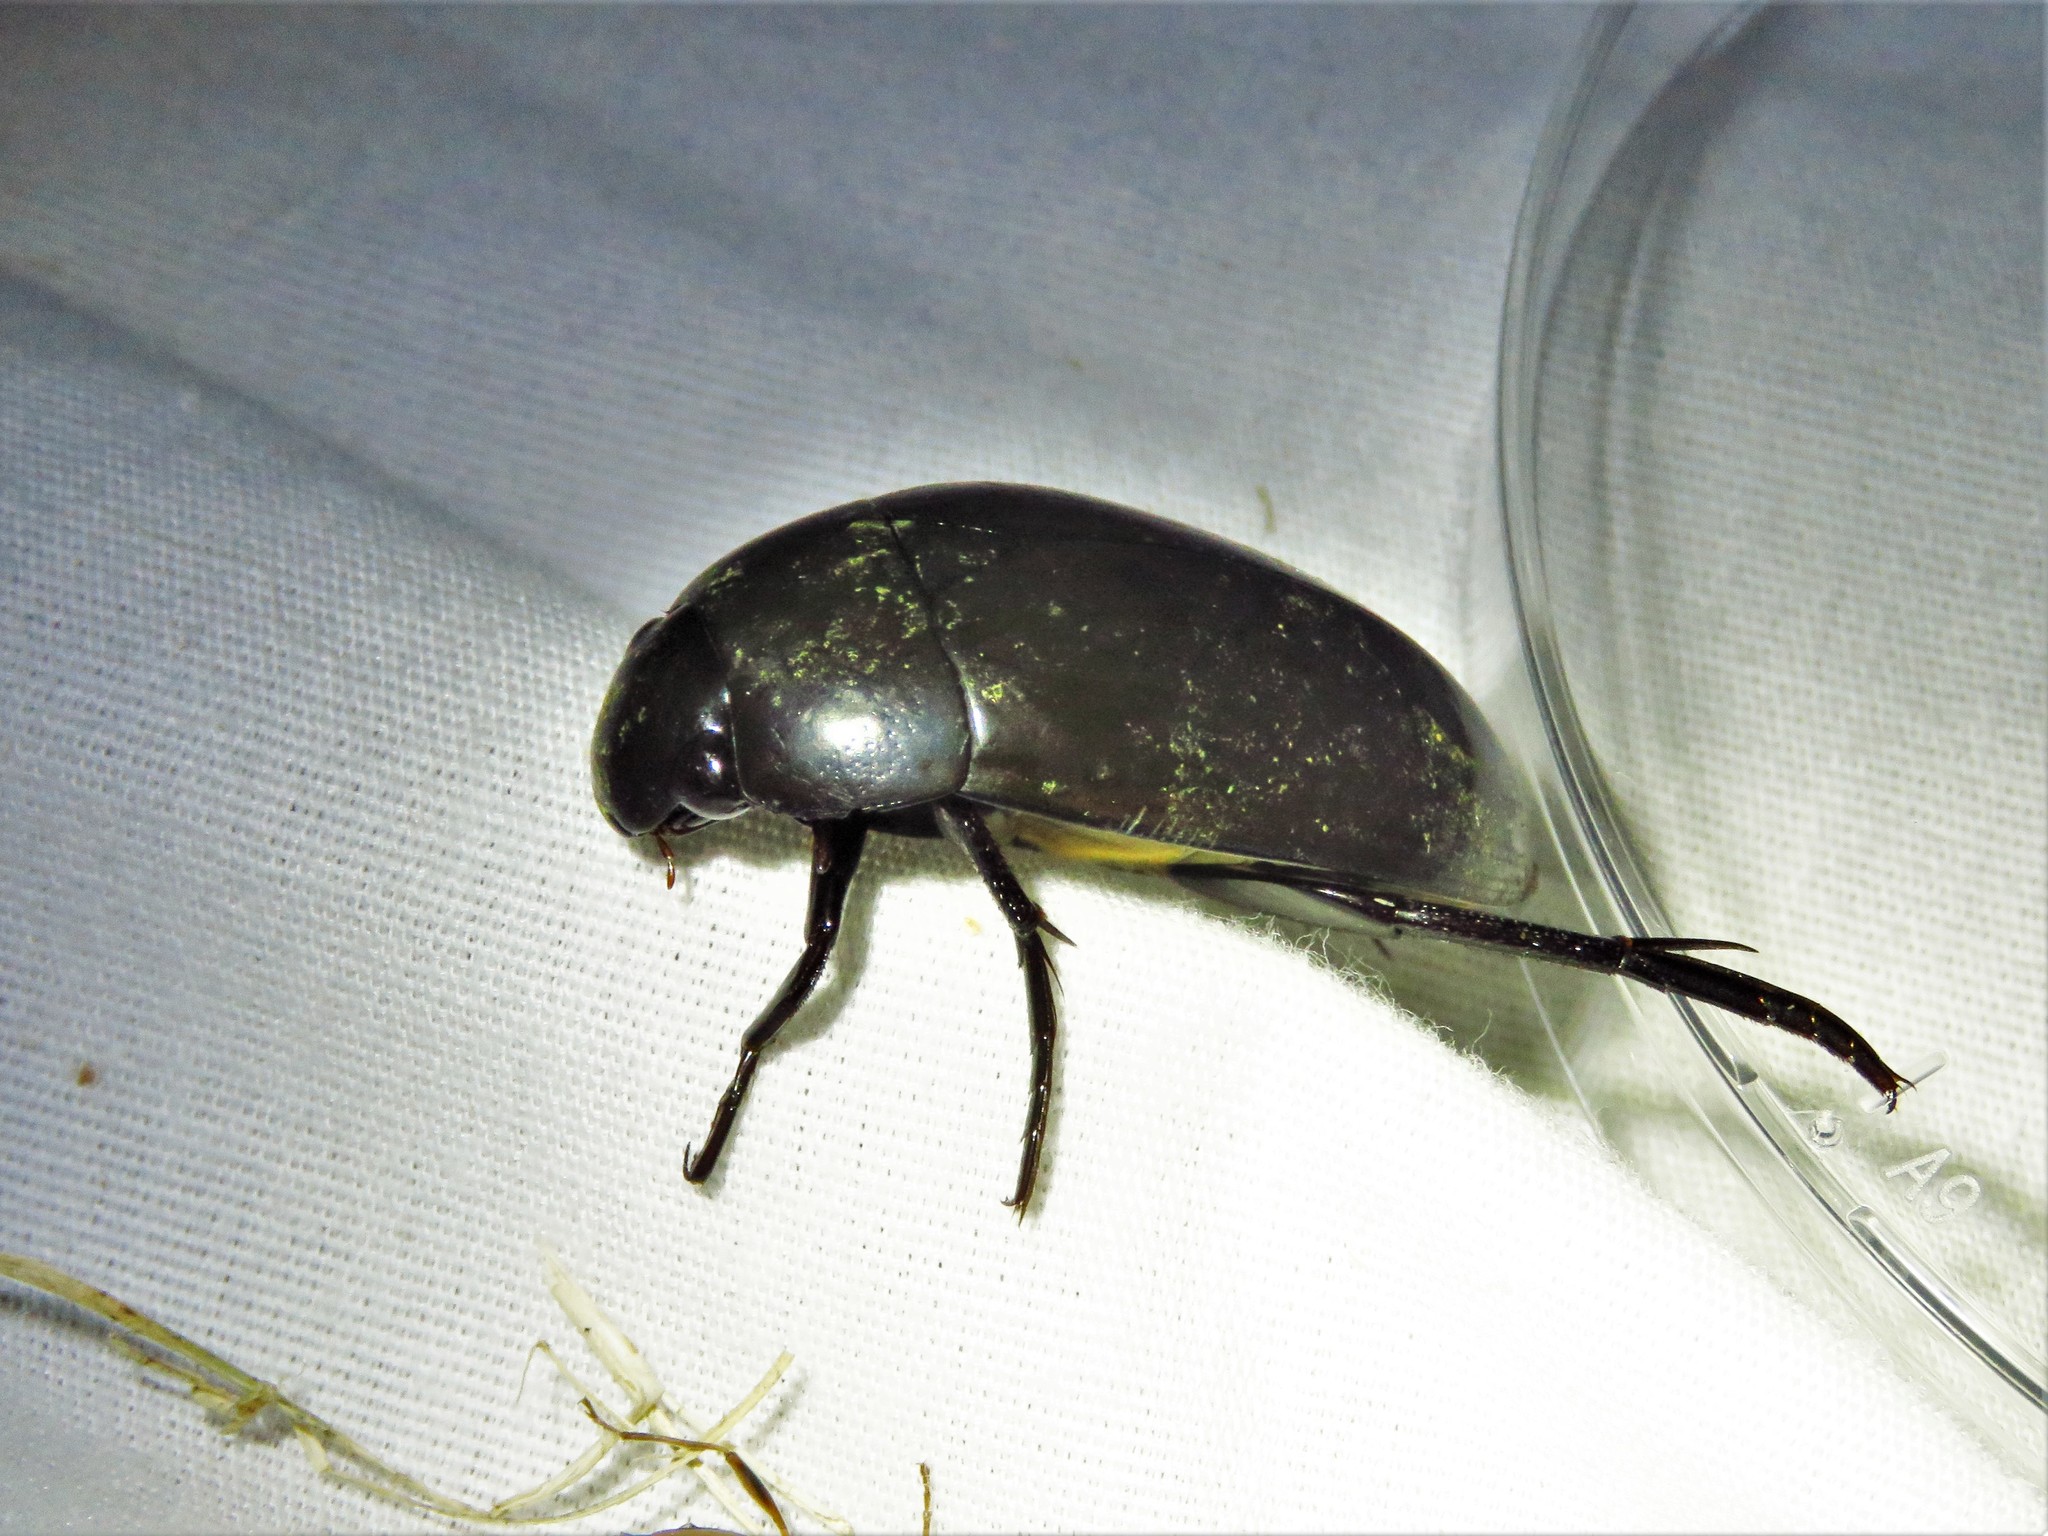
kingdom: Animalia
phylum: Arthropoda
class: Insecta
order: Coleoptera
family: Hydrophilidae
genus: Hydrophilus
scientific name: Hydrophilus
